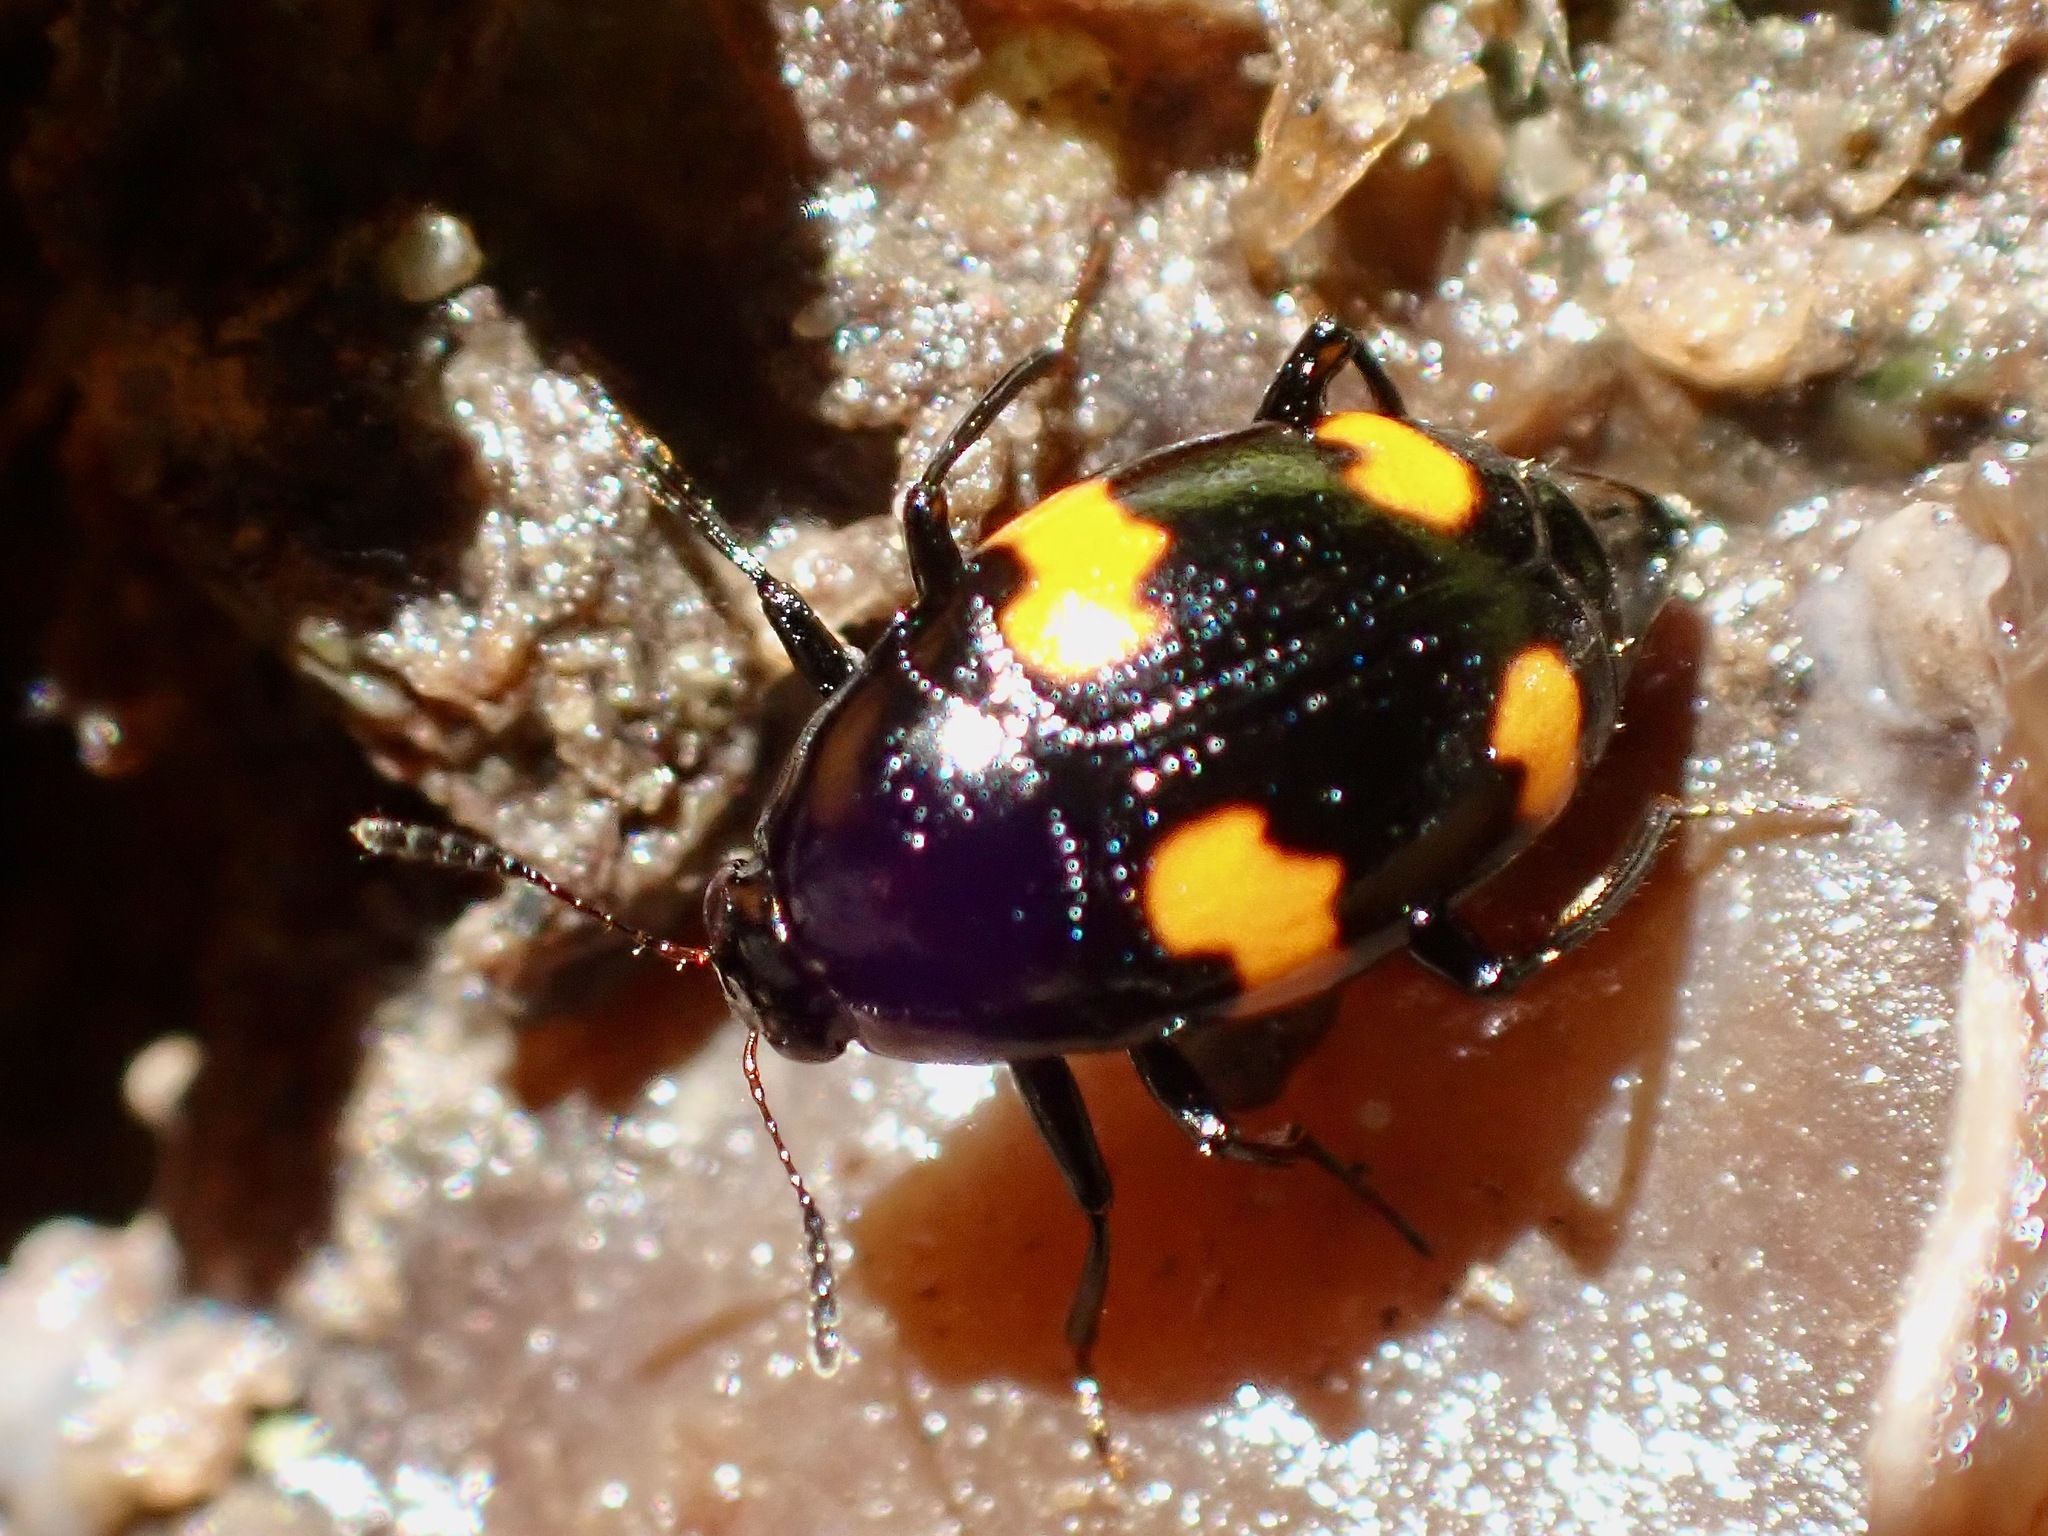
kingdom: Animalia
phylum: Arthropoda
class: Insecta
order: Coleoptera
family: Staphylinidae
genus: Scaphidium
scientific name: Scaphidium quadrimaculatum
